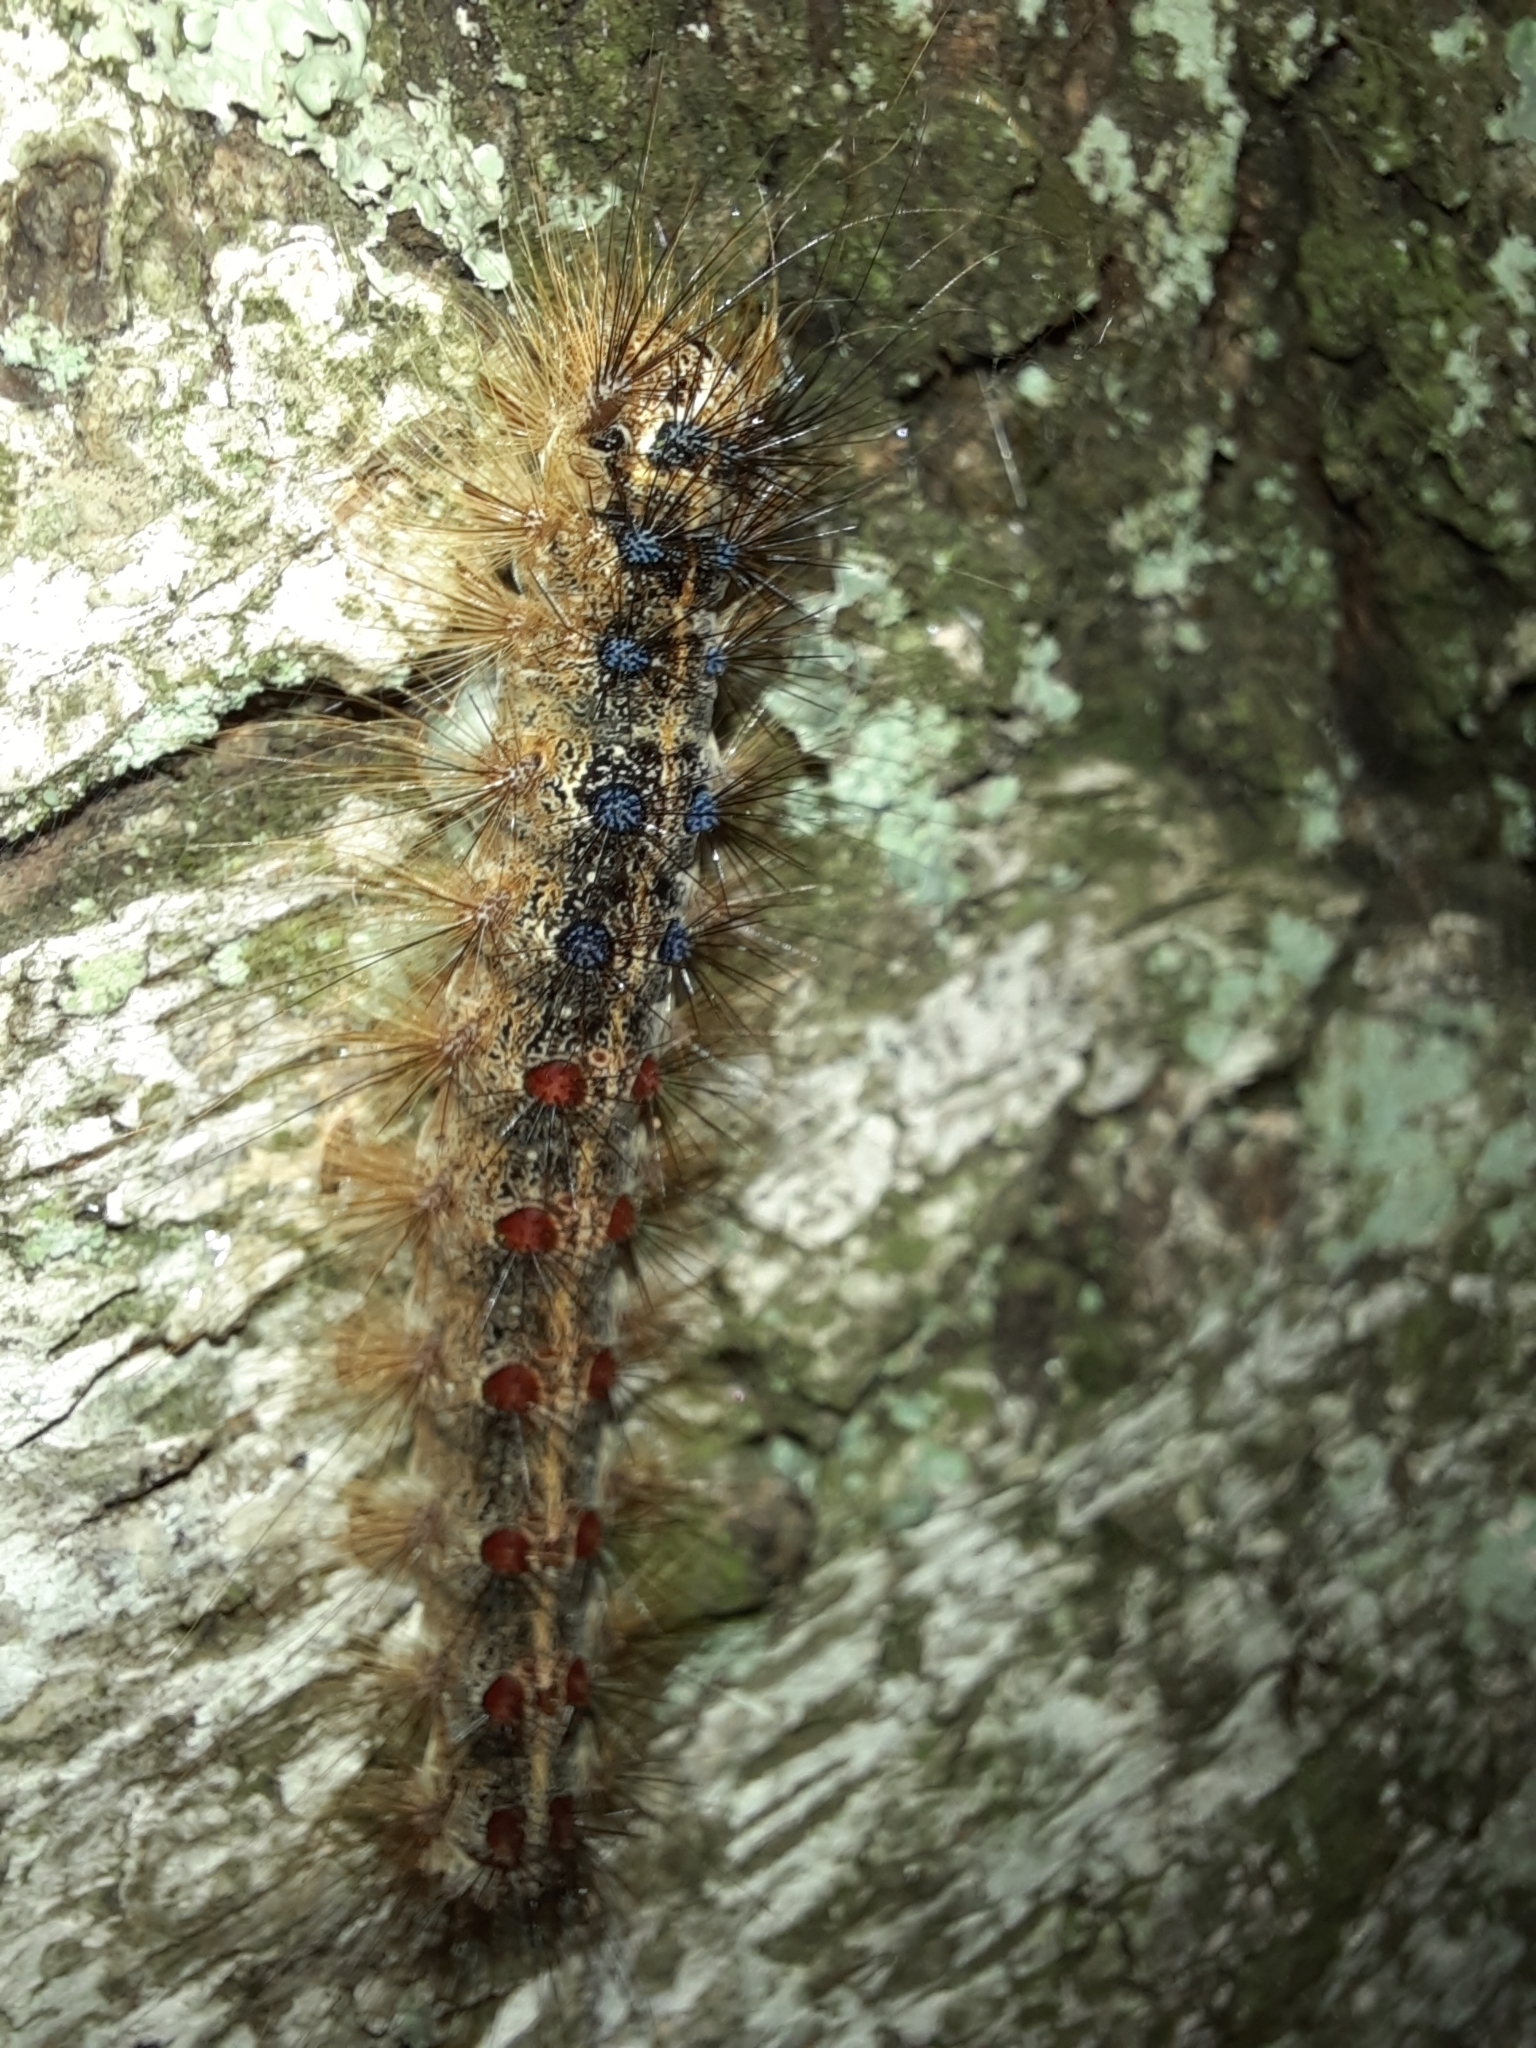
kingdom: Animalia
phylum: Arthropoda
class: Insecta
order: Lepidoptera
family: Erebidae
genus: Lymantria
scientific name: Lymantria dispar
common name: Gypsy moth
